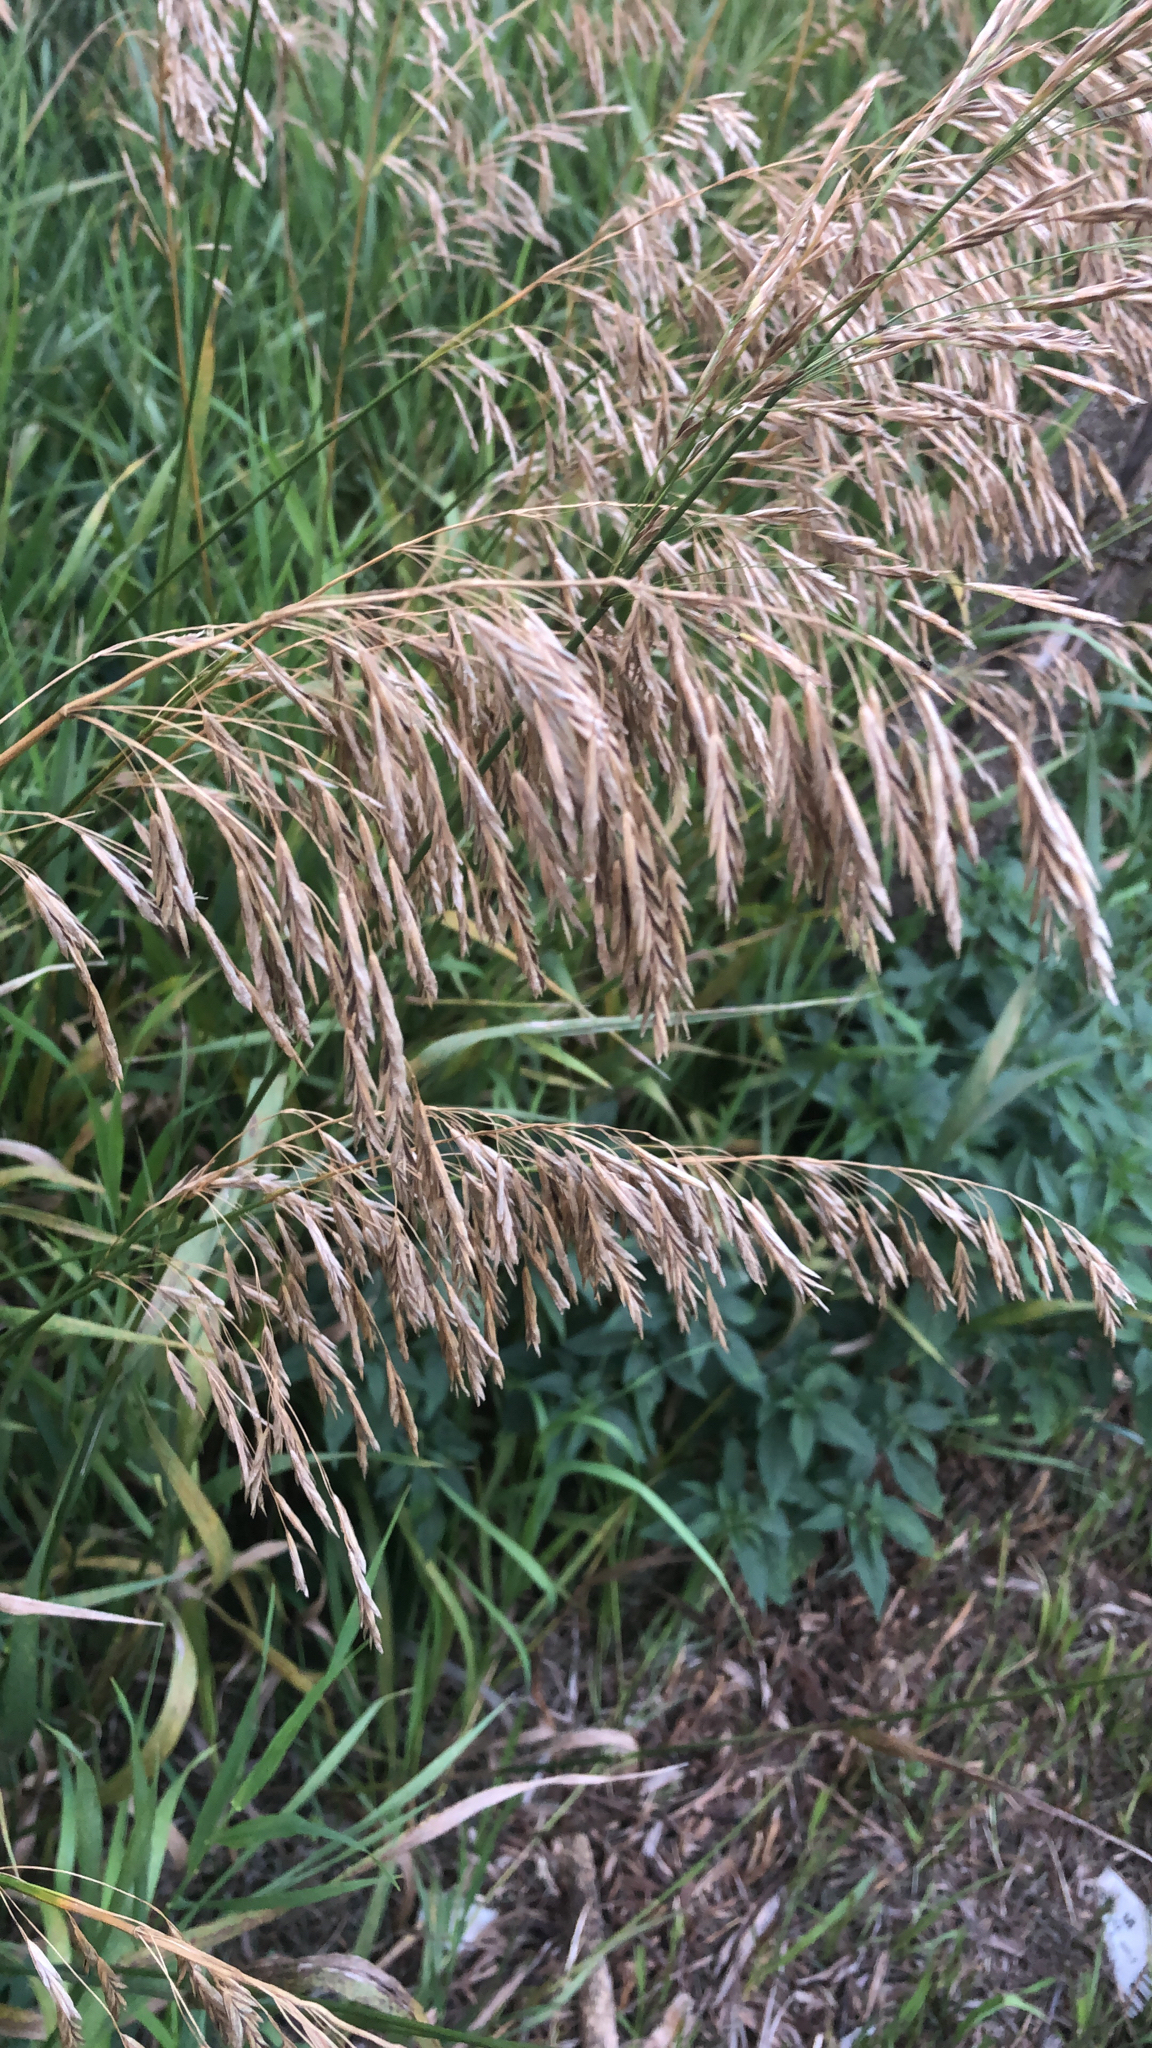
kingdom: Plantae
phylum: Tracheophyta
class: Liliopsida
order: Poales
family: Poaceae
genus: Bromus
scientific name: Bromus inermis
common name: Smooth brome
